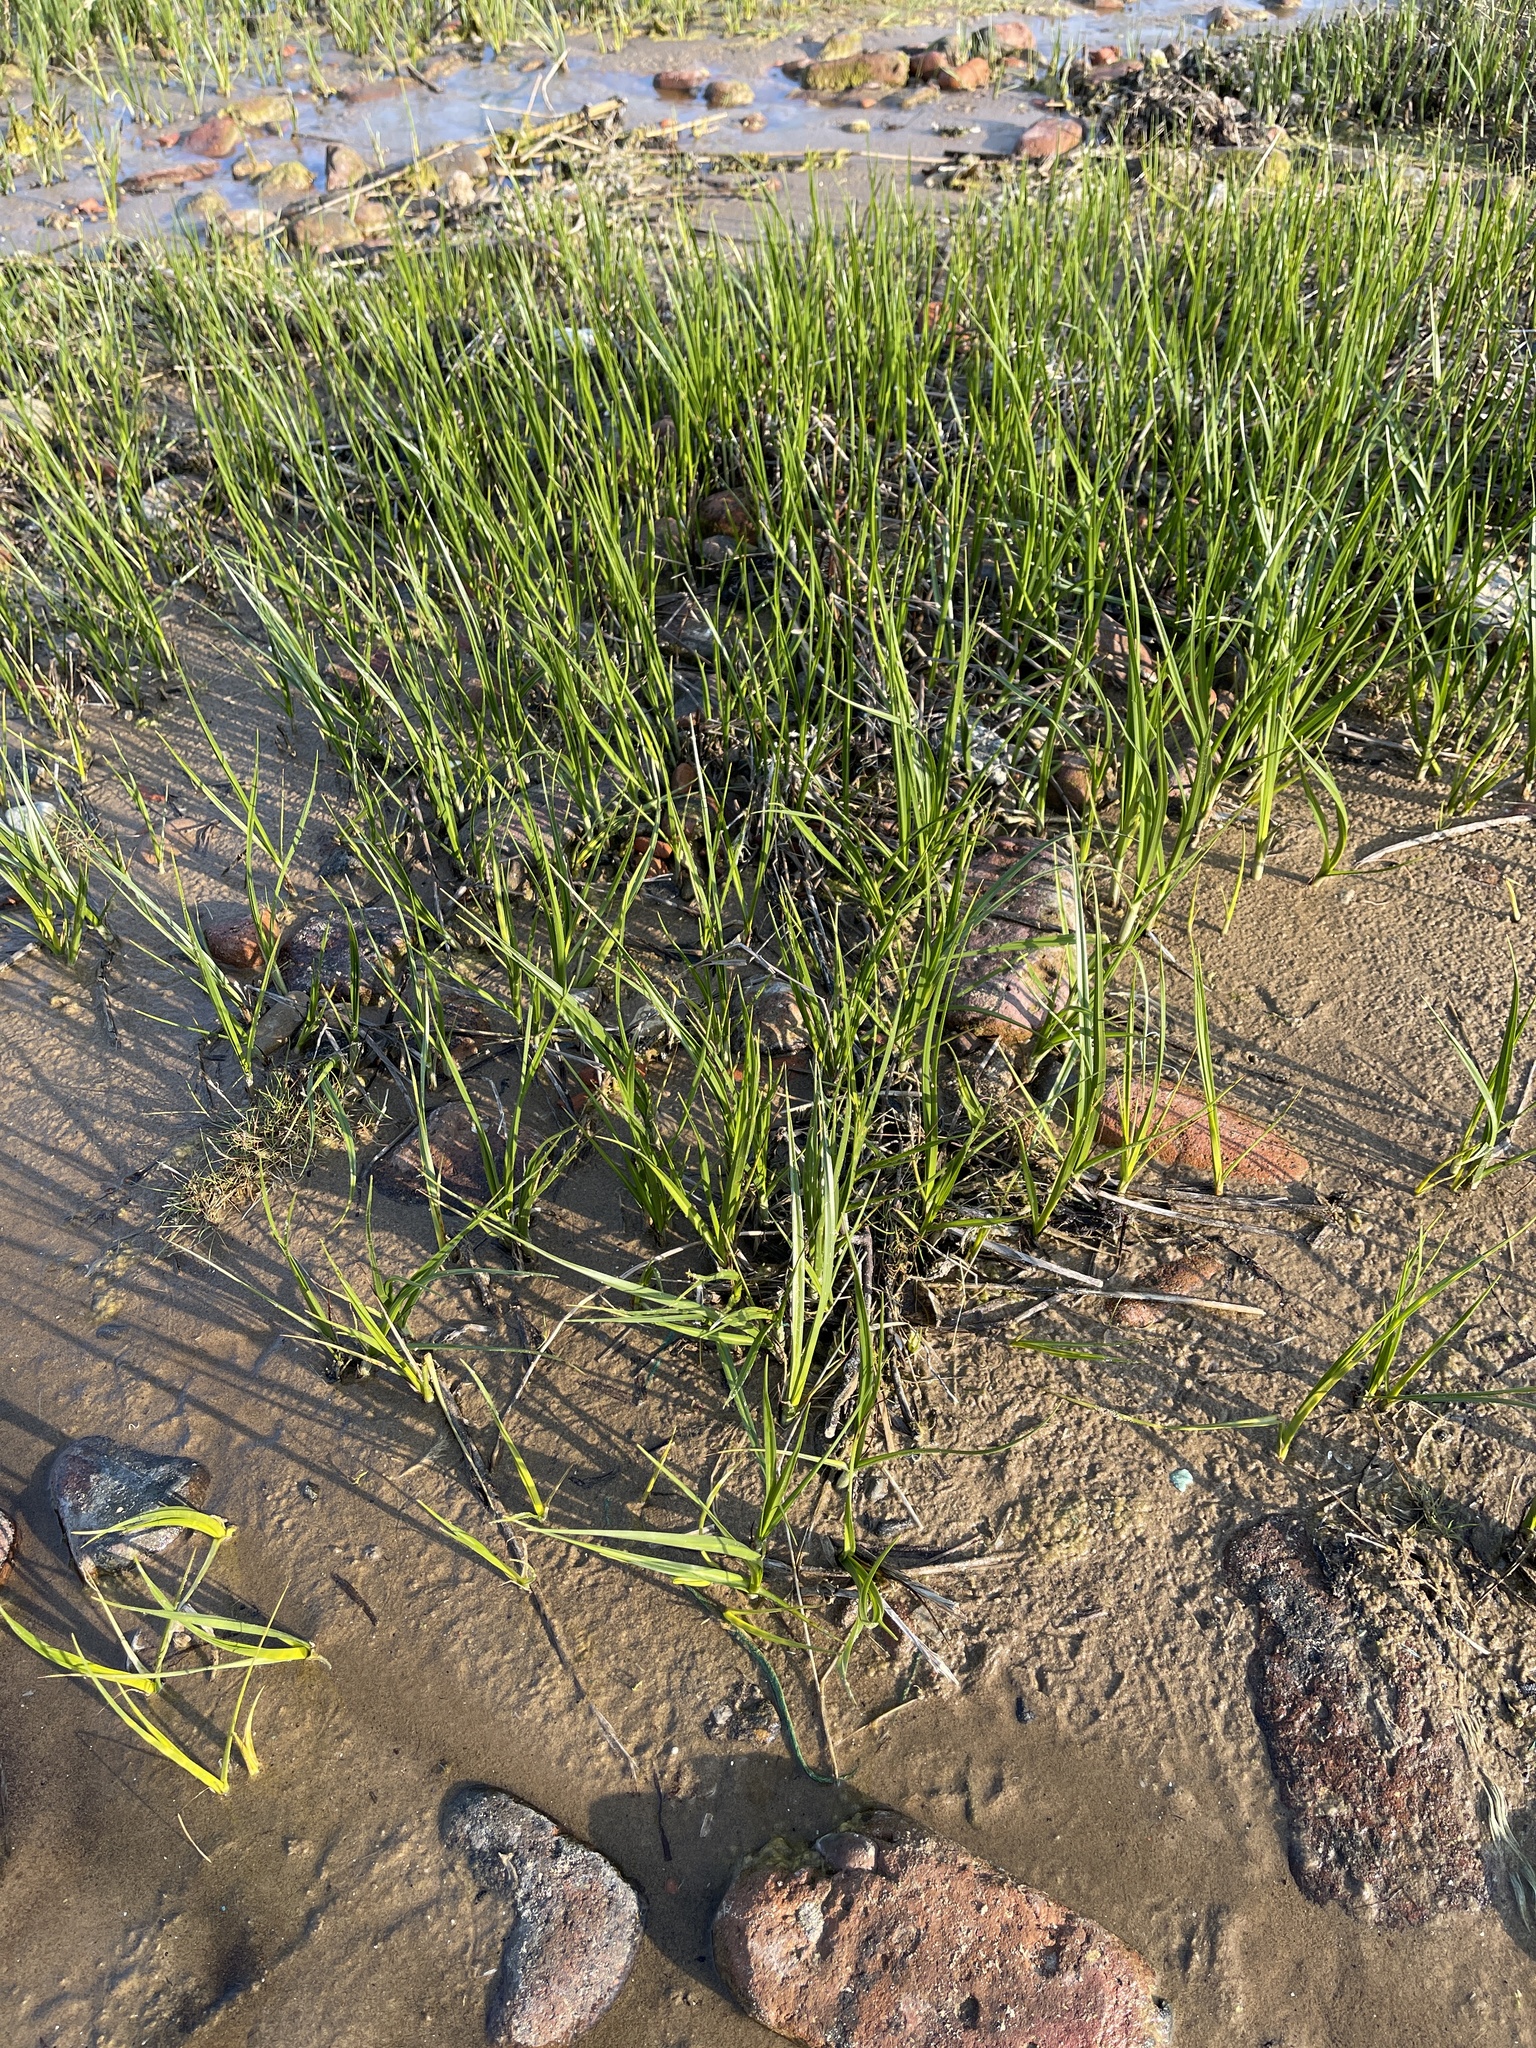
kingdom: Plantae
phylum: Tracheophyta
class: Liliopsida
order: Poales
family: Cyperaceae
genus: Bolboschoenus
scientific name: Bolboschoenus maritimus
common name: Sea club-rush
